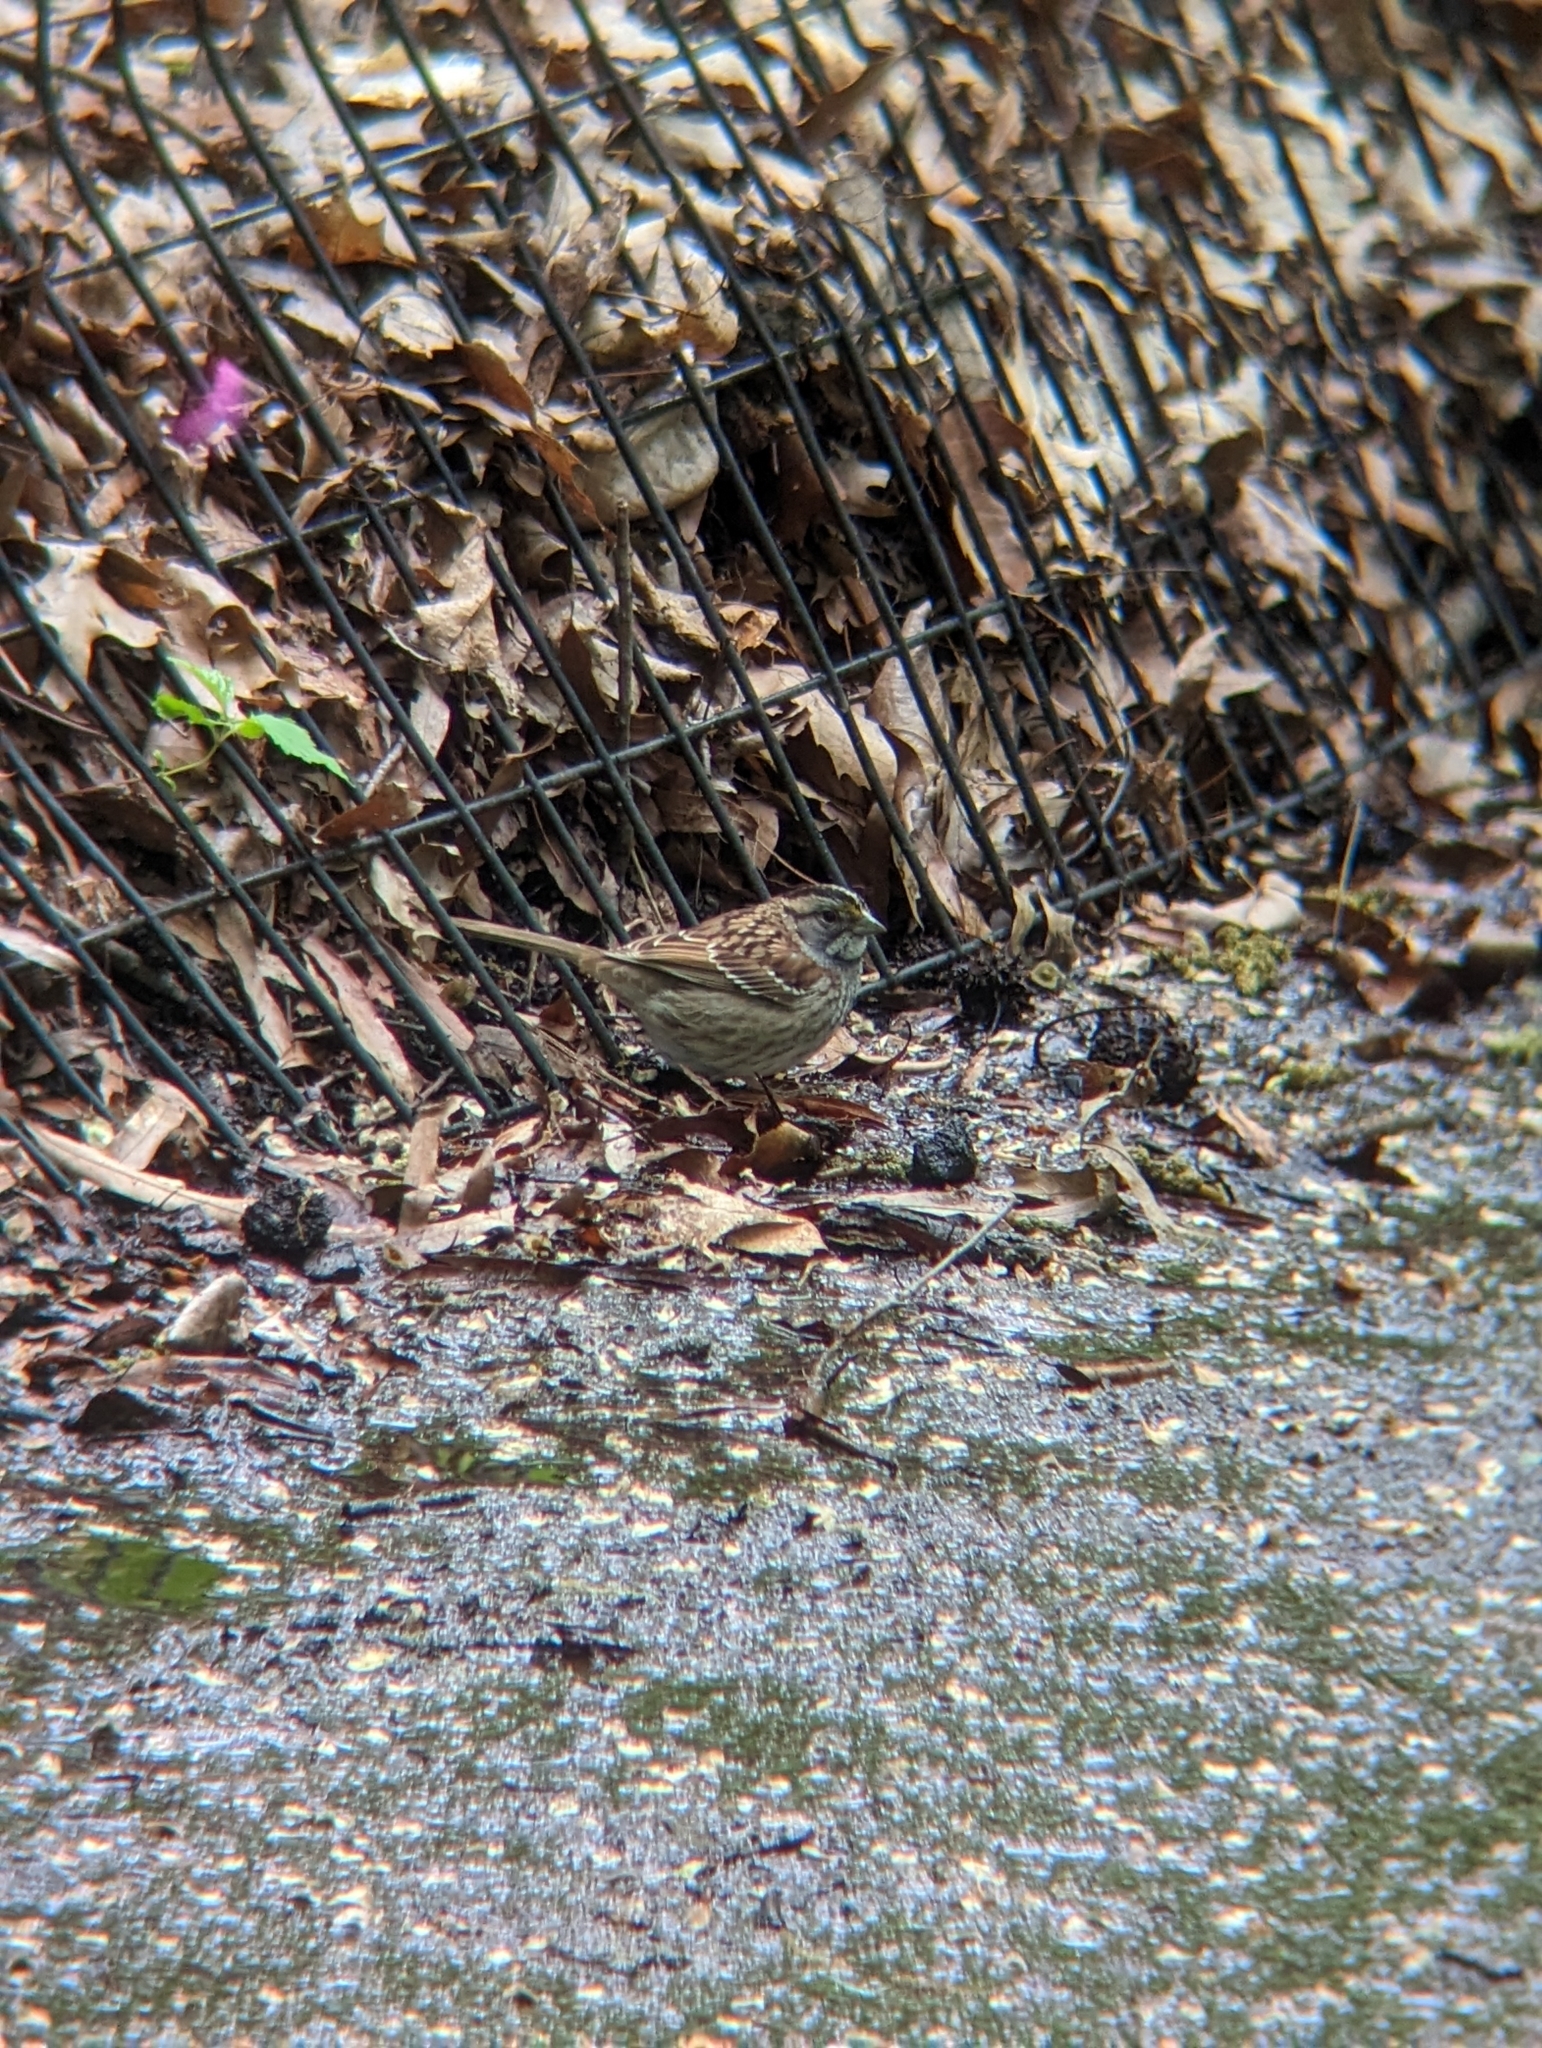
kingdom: Animalia
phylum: Chordata
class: Aves
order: Passeriformes
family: Passerellidae
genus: Zonotrichia
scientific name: Zonotrichia albicollis
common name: White-throated sparrow
